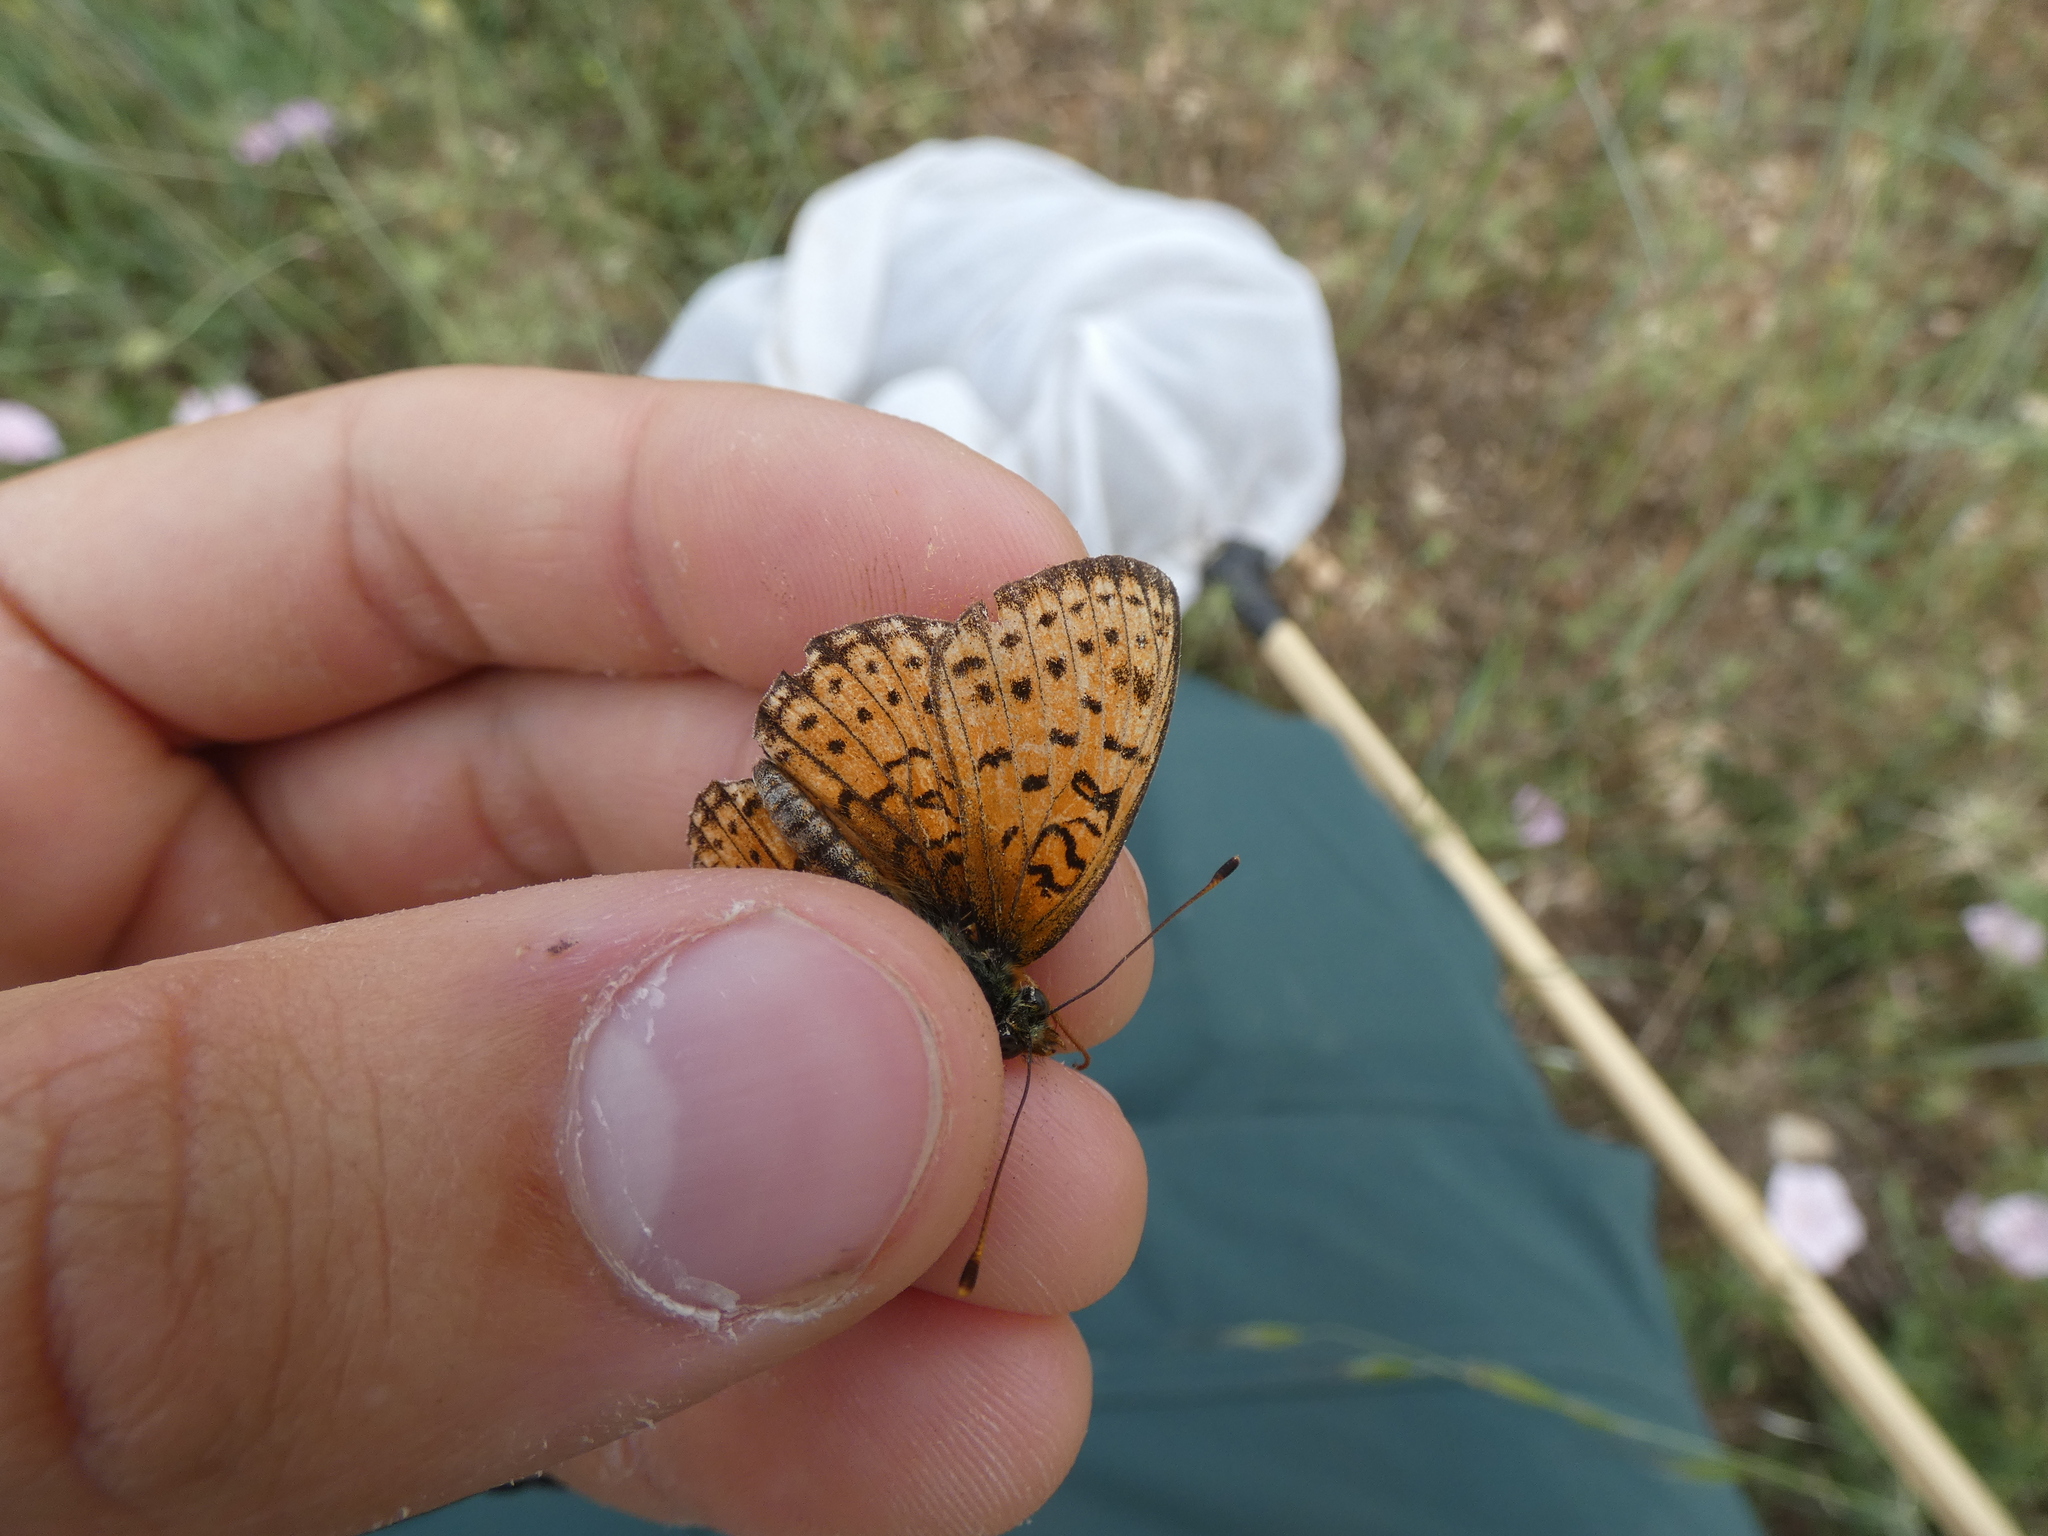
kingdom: Animalia
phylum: Arthropoda
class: Insecta
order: Lepidoptera
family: Nymphalidae
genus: Brenthis
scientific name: Brenthis hecate
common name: Twin-spot fritillary
